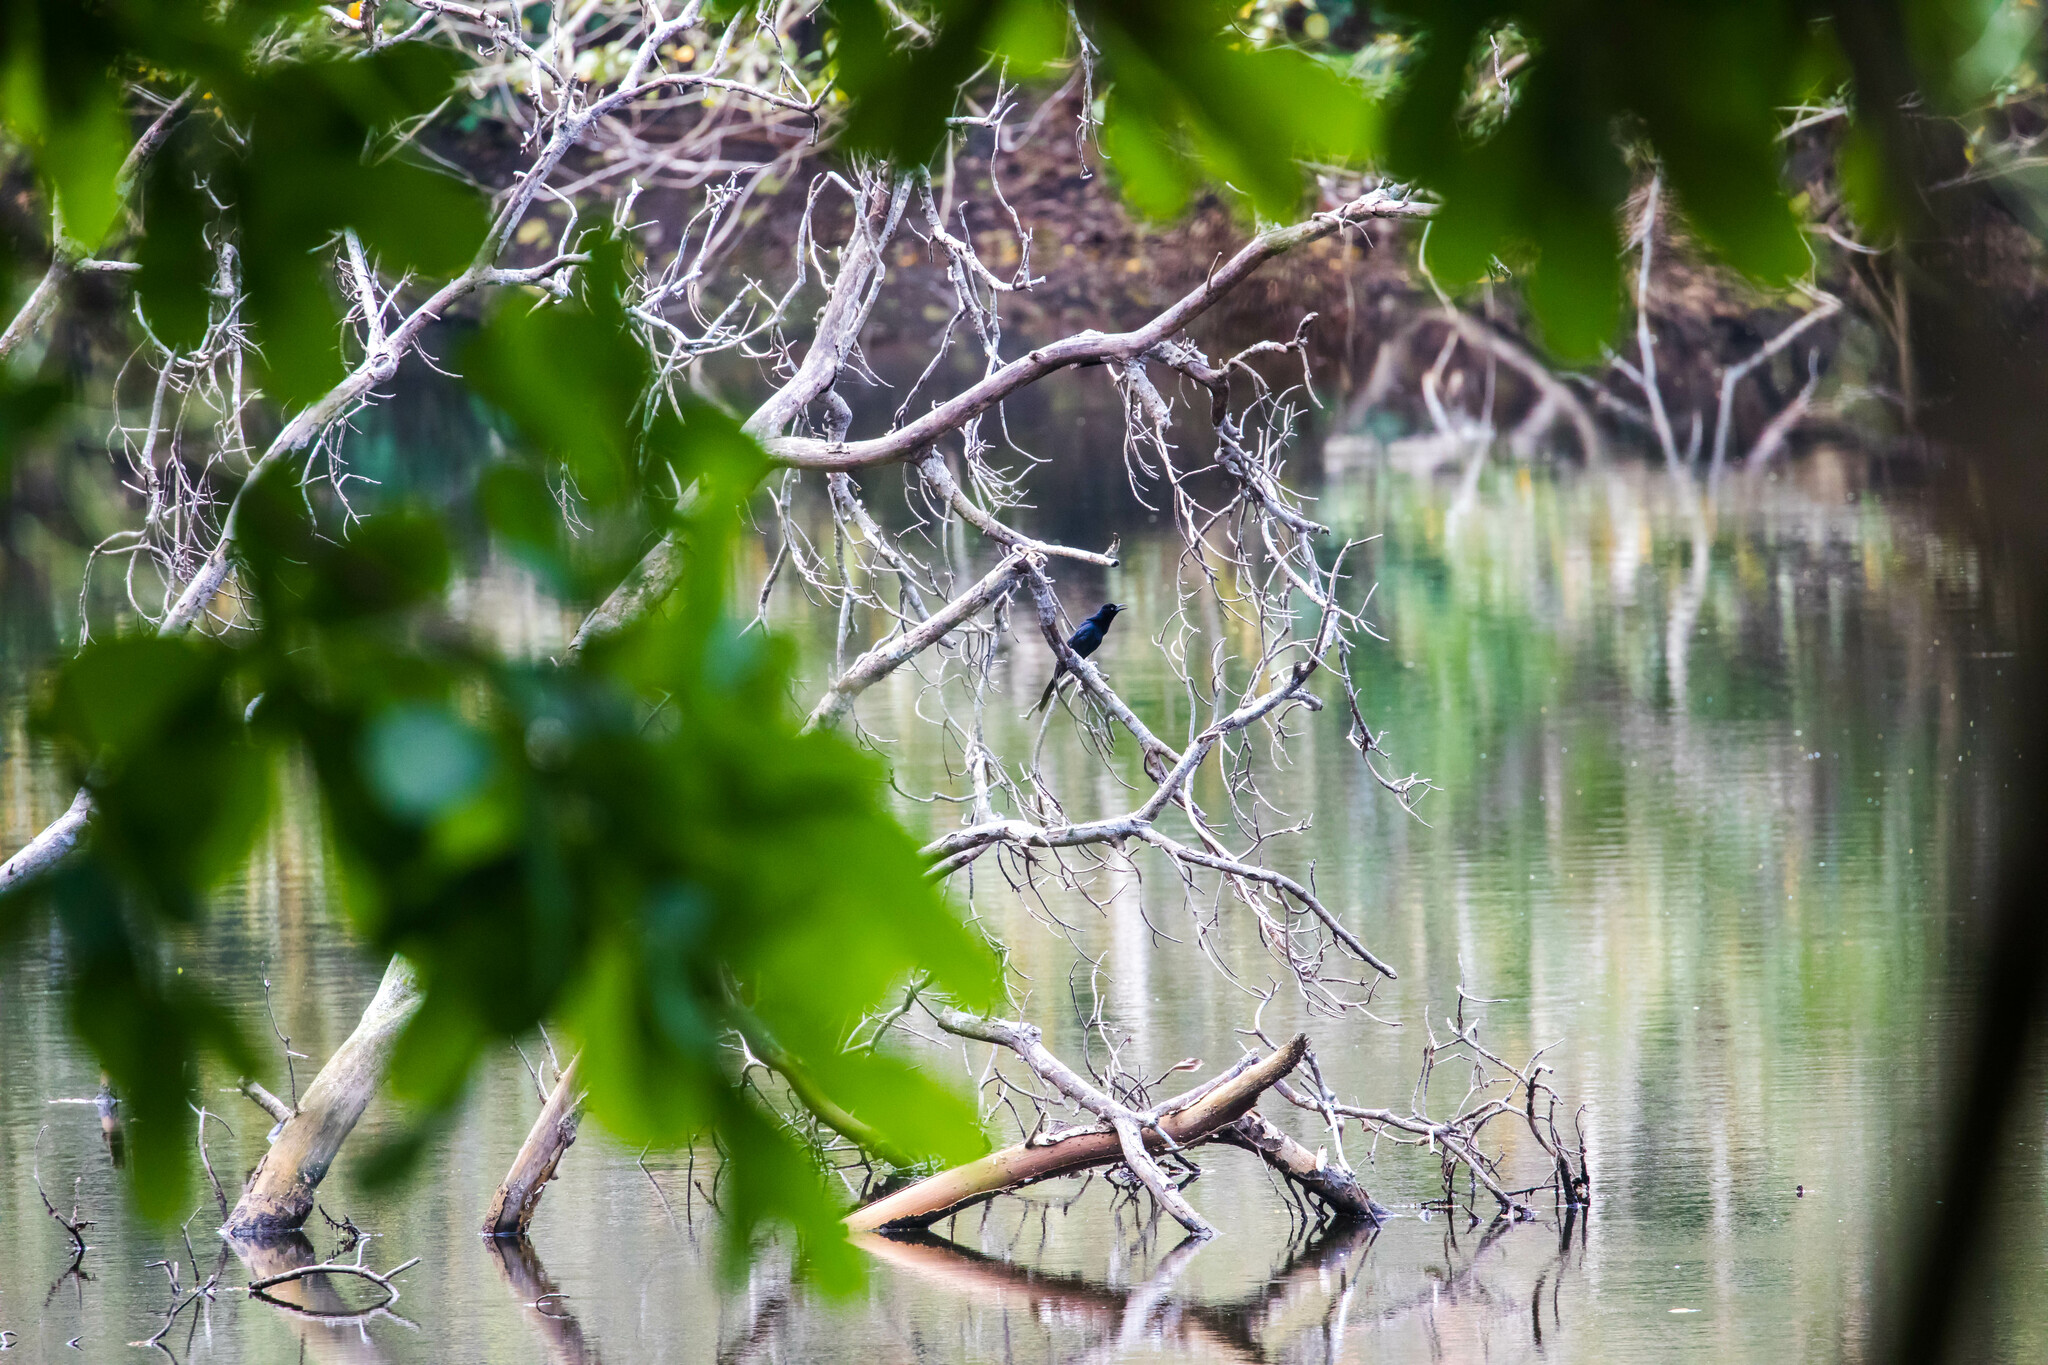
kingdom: Animalia
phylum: Chordata
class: Aves
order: Passeriformes
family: Icteridae
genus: Quiscalus
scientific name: Quiscalus mexicanus
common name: Great-tailed grackle
